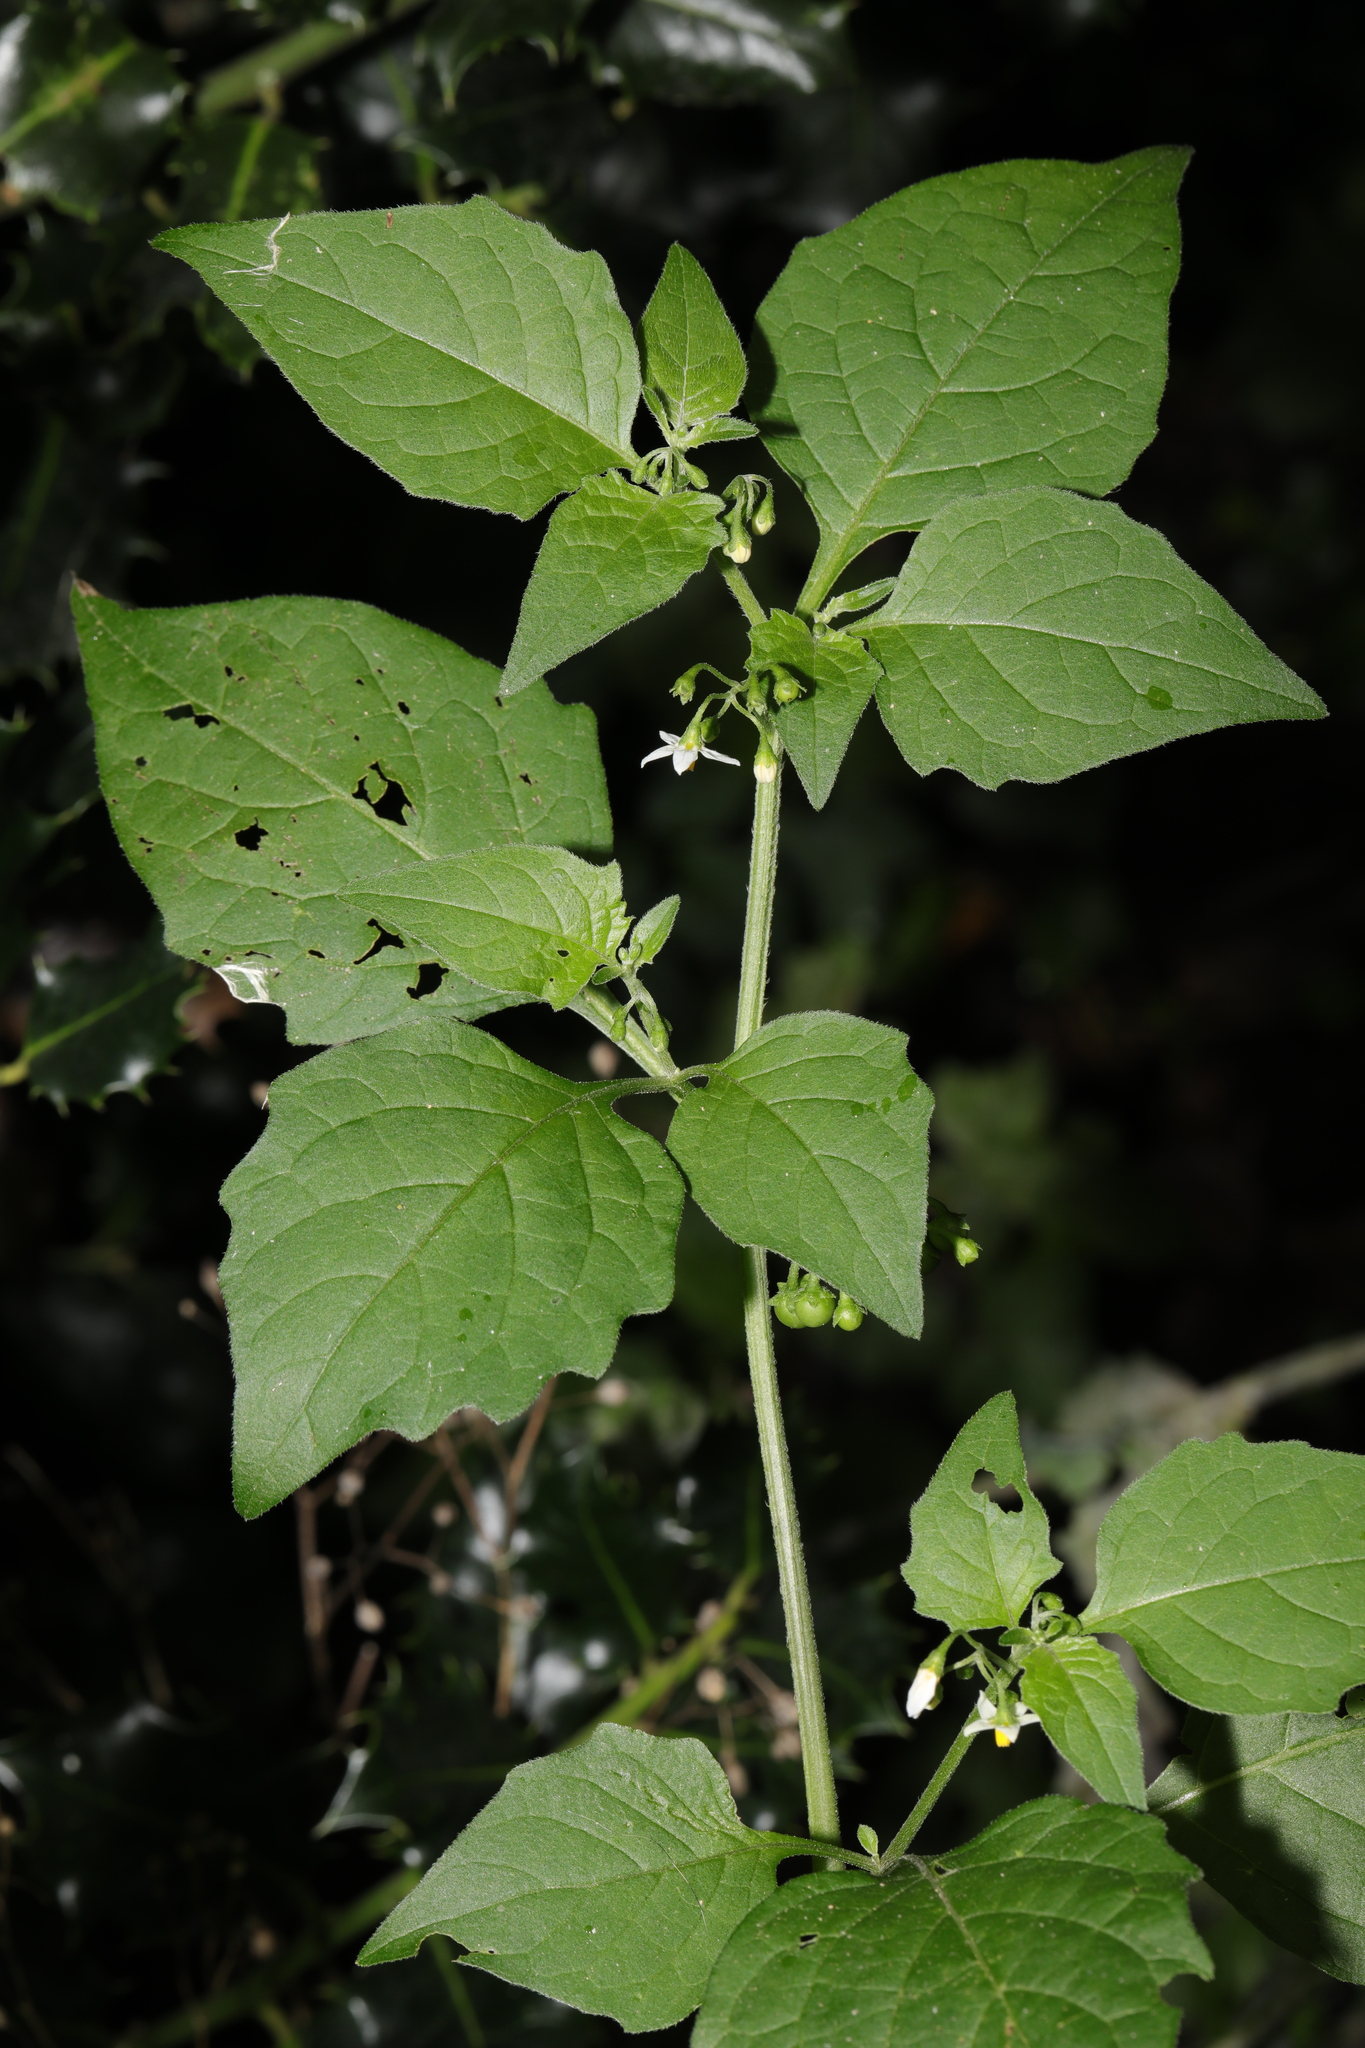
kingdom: Plantae
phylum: Tracheophyta
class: Magnoliopsida
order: Solanales
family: Solanaceae
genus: Solanum
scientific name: Solanum nigrum
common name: Black nightshade
